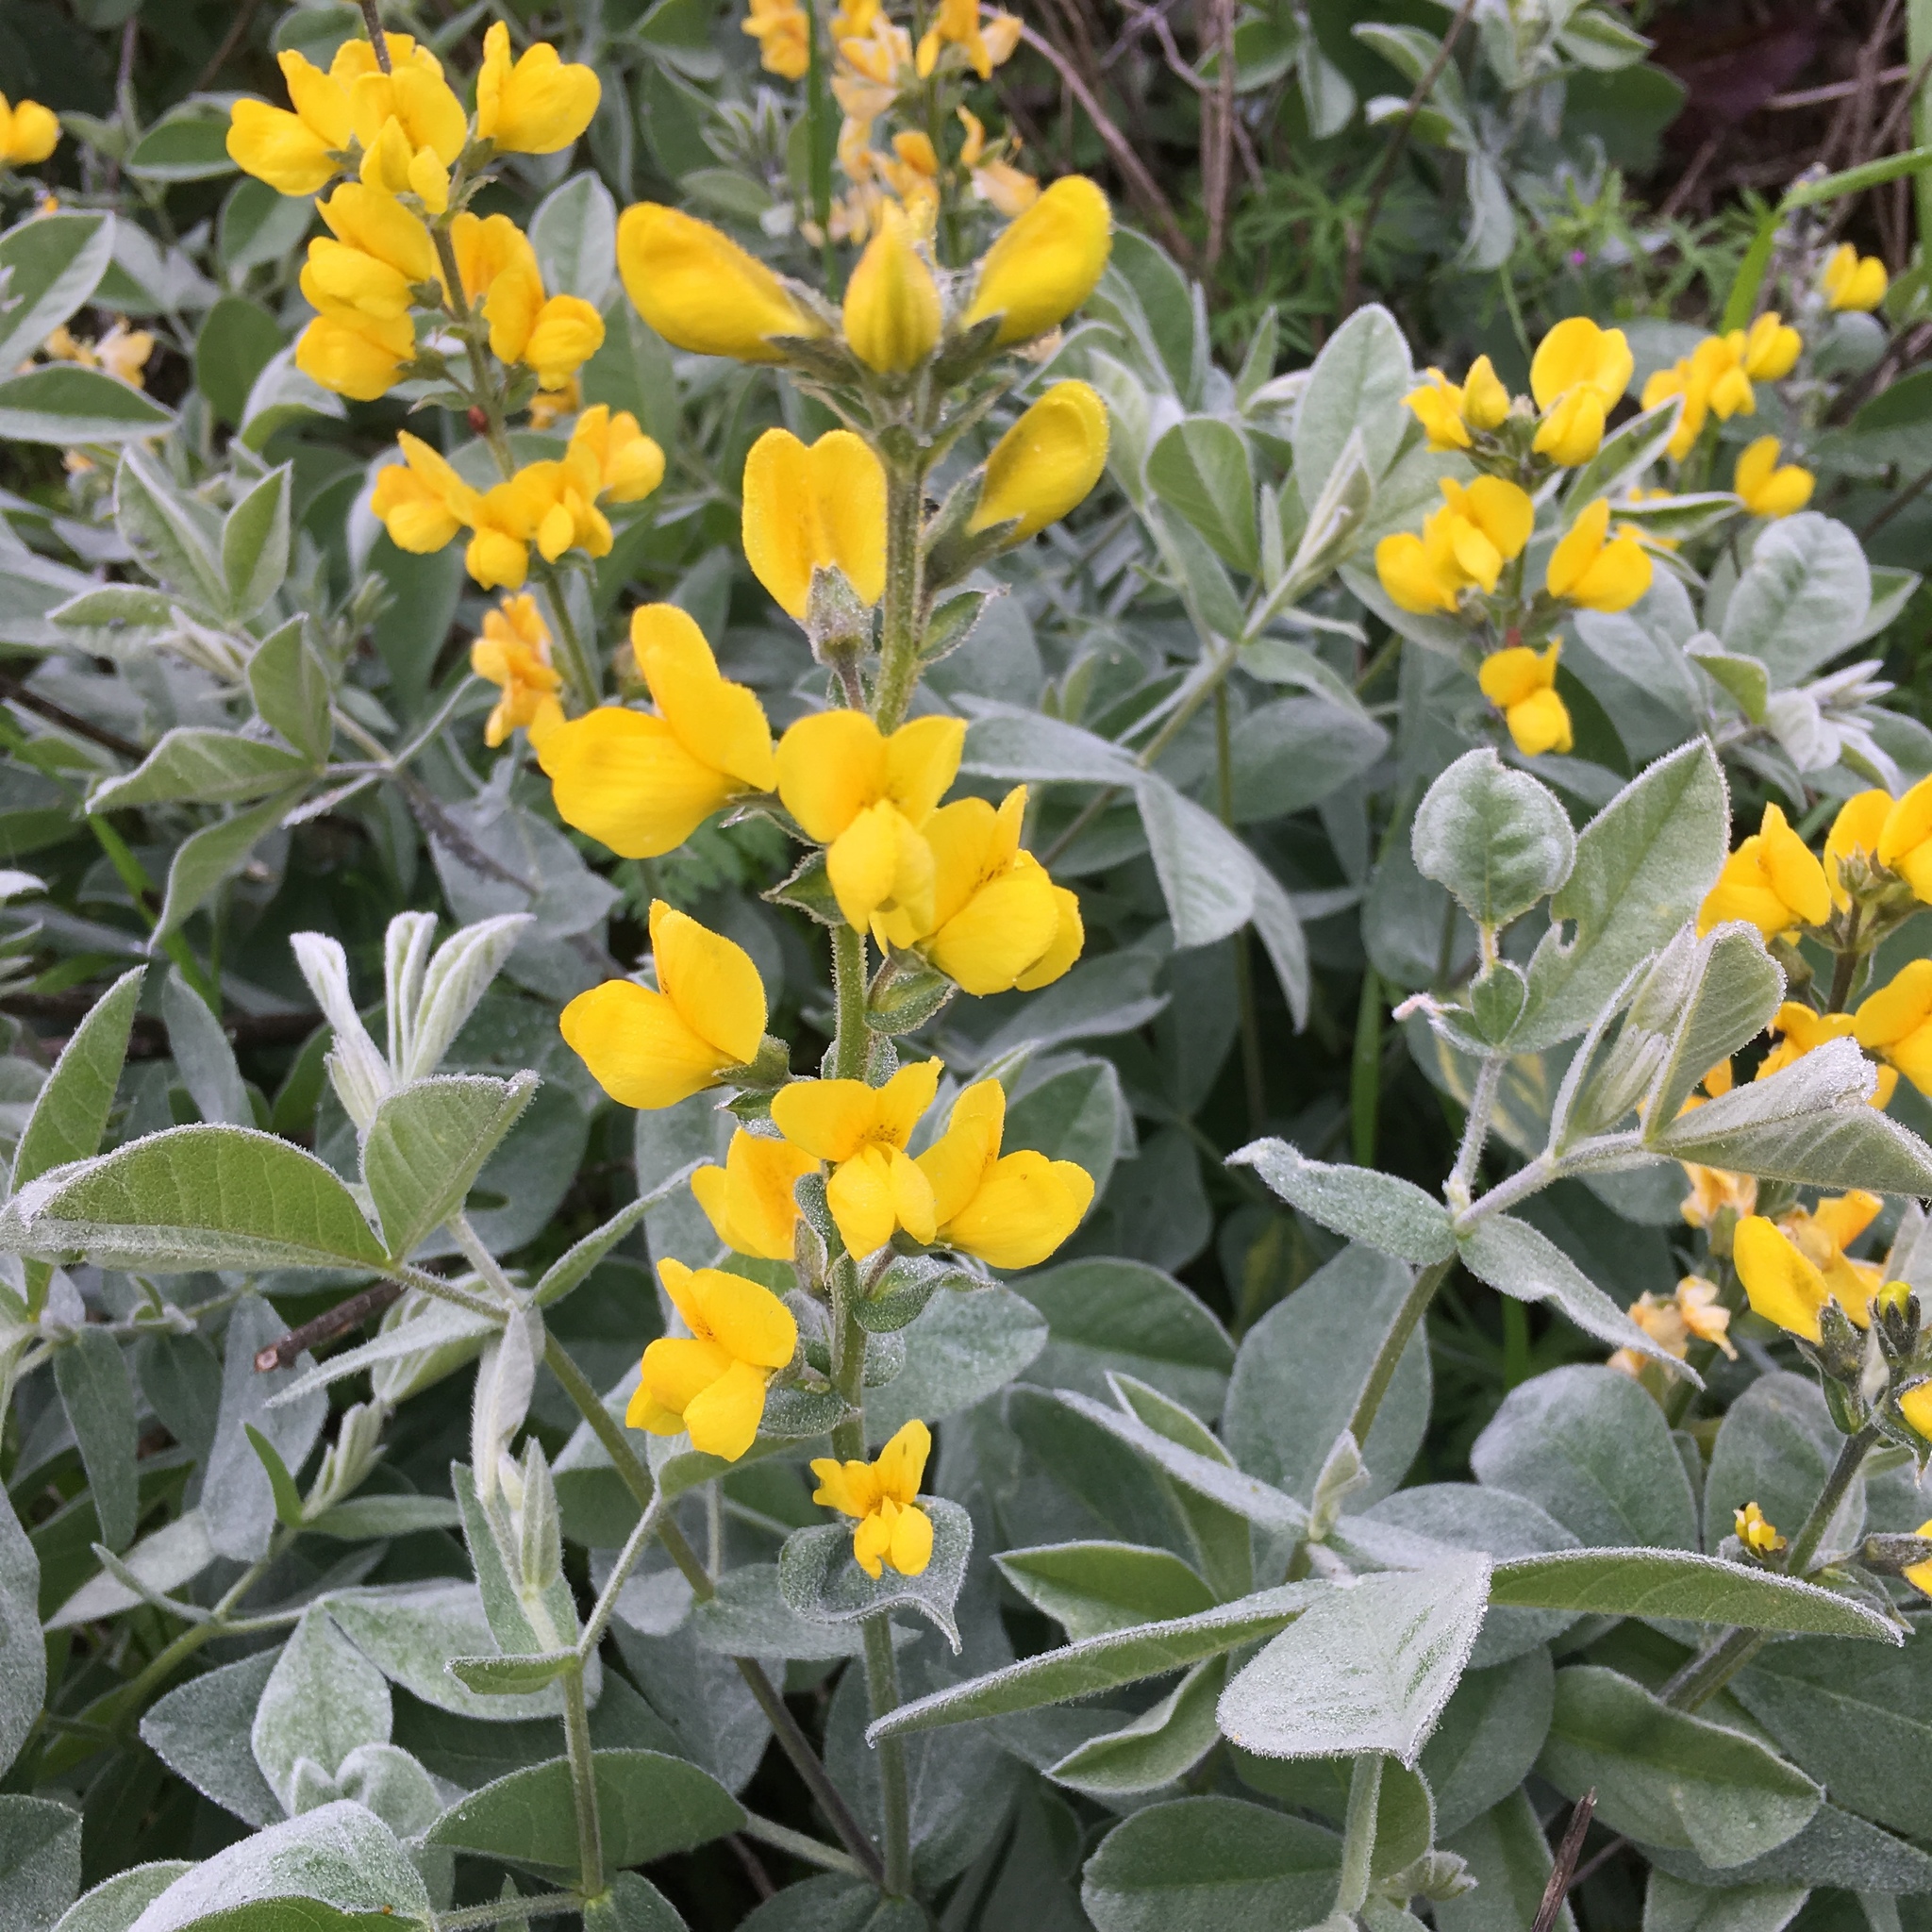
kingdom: Plantae
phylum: Tracheophyta
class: Magnoliopsida
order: Fabales
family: Fabaceae
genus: Thermopsis
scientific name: Thermopsis californica
